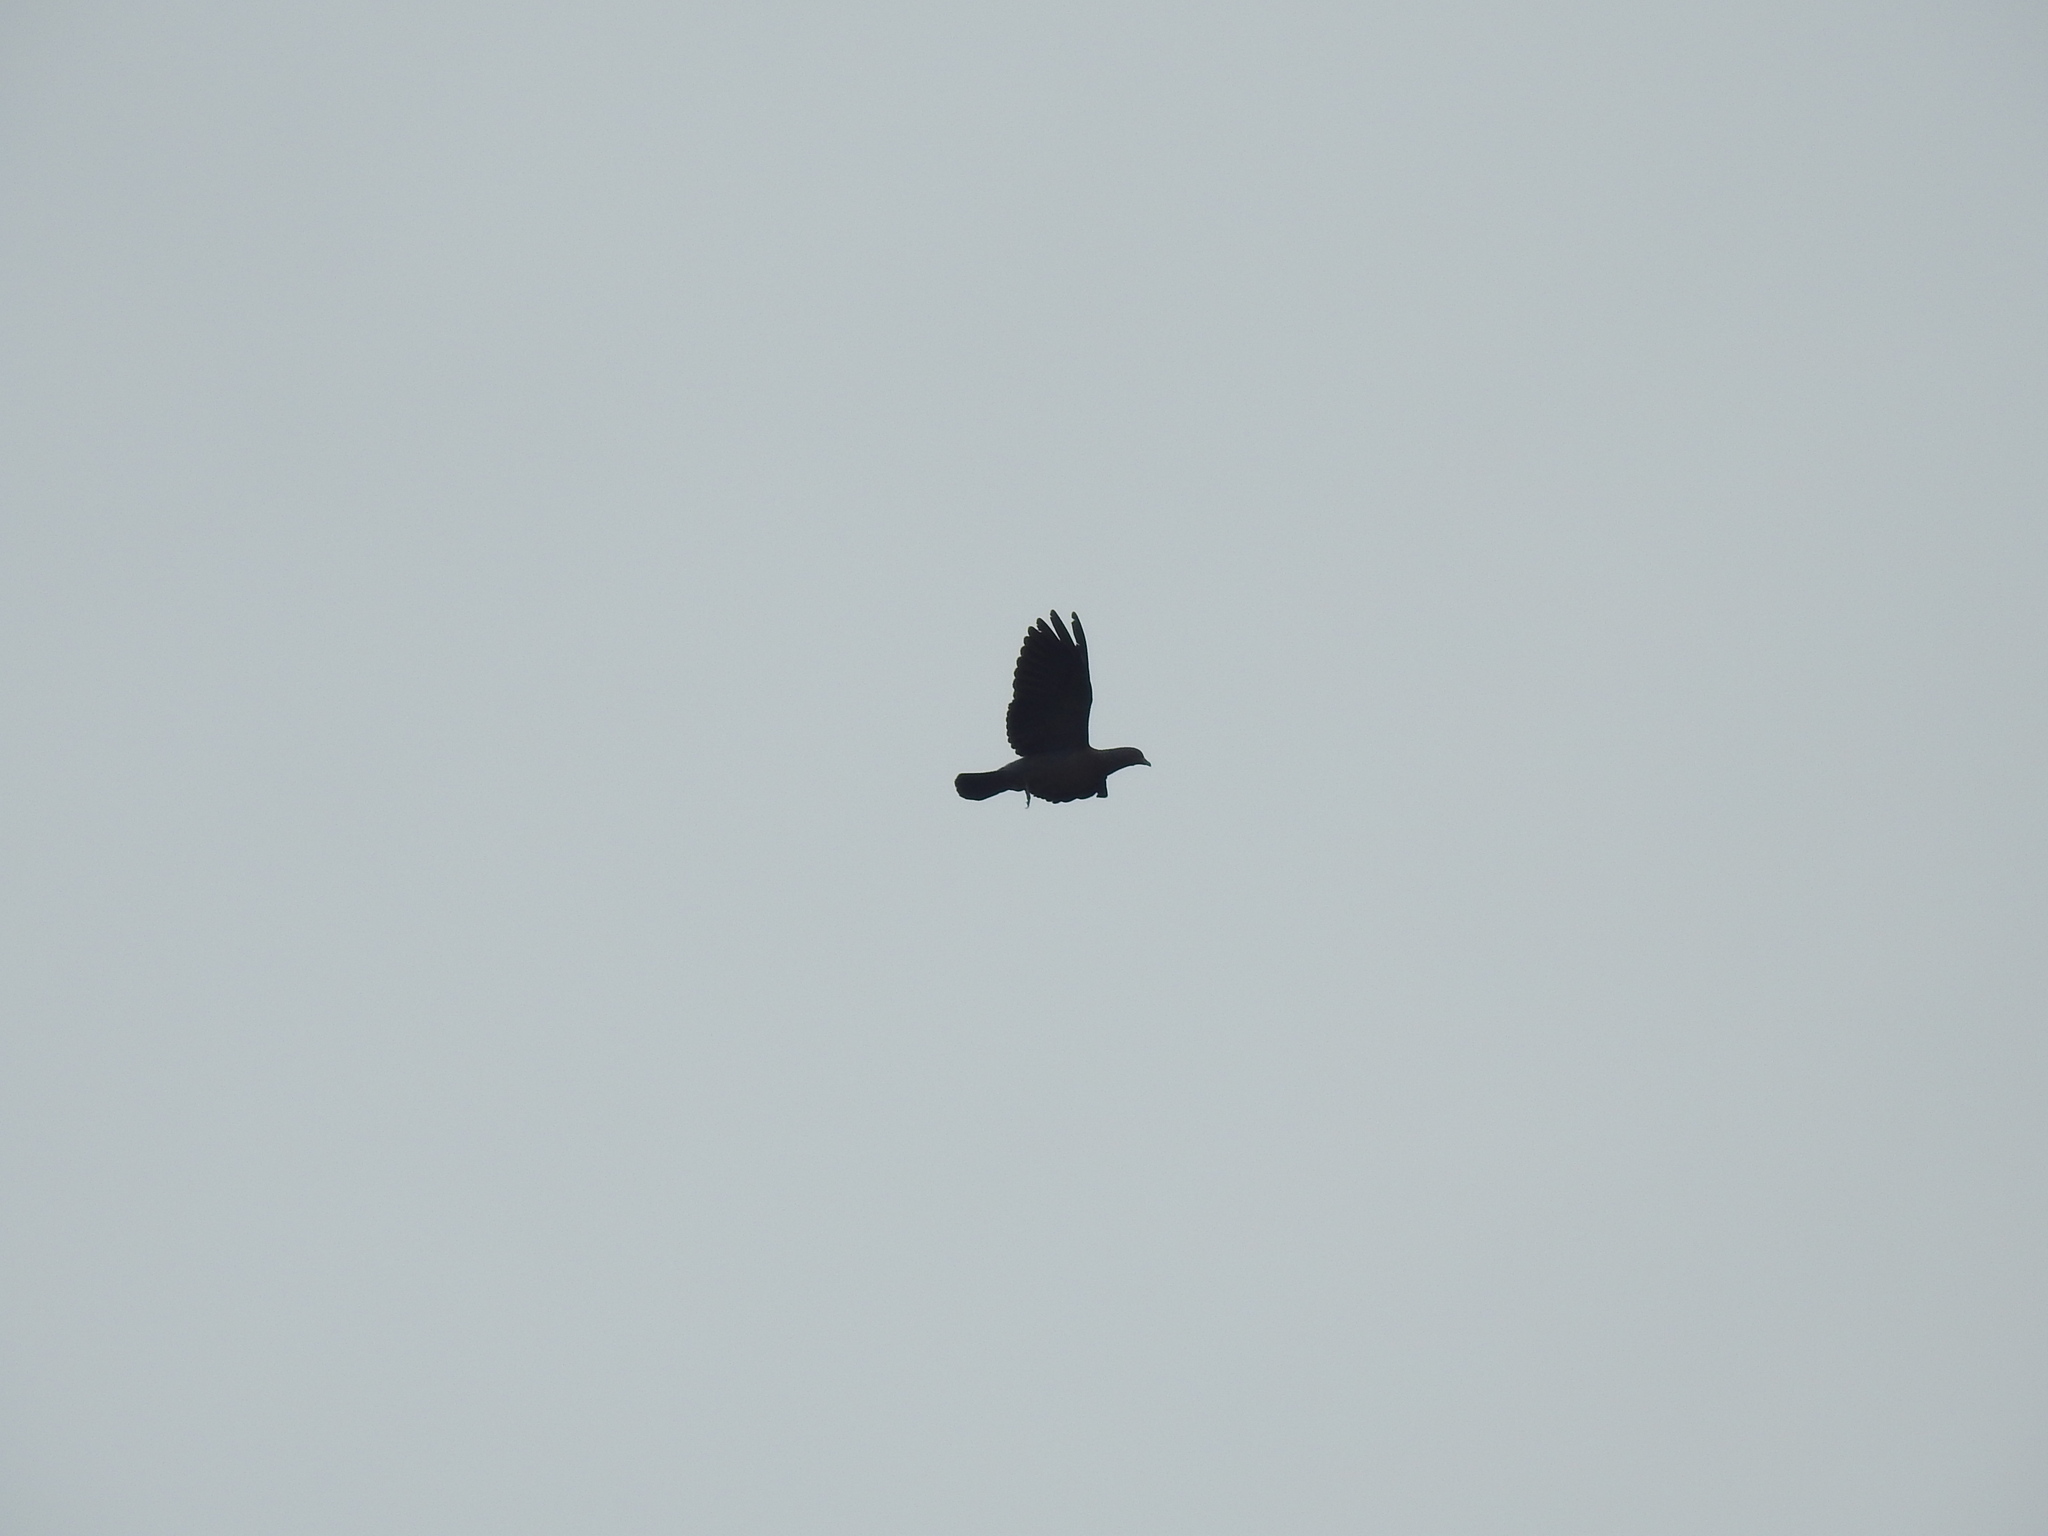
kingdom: Animalia
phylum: Chordata
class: Aves
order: Columbiformes
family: Columbidae
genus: Patagioenas
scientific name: Patagioenas picazuro
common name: Picazuro pigeon
